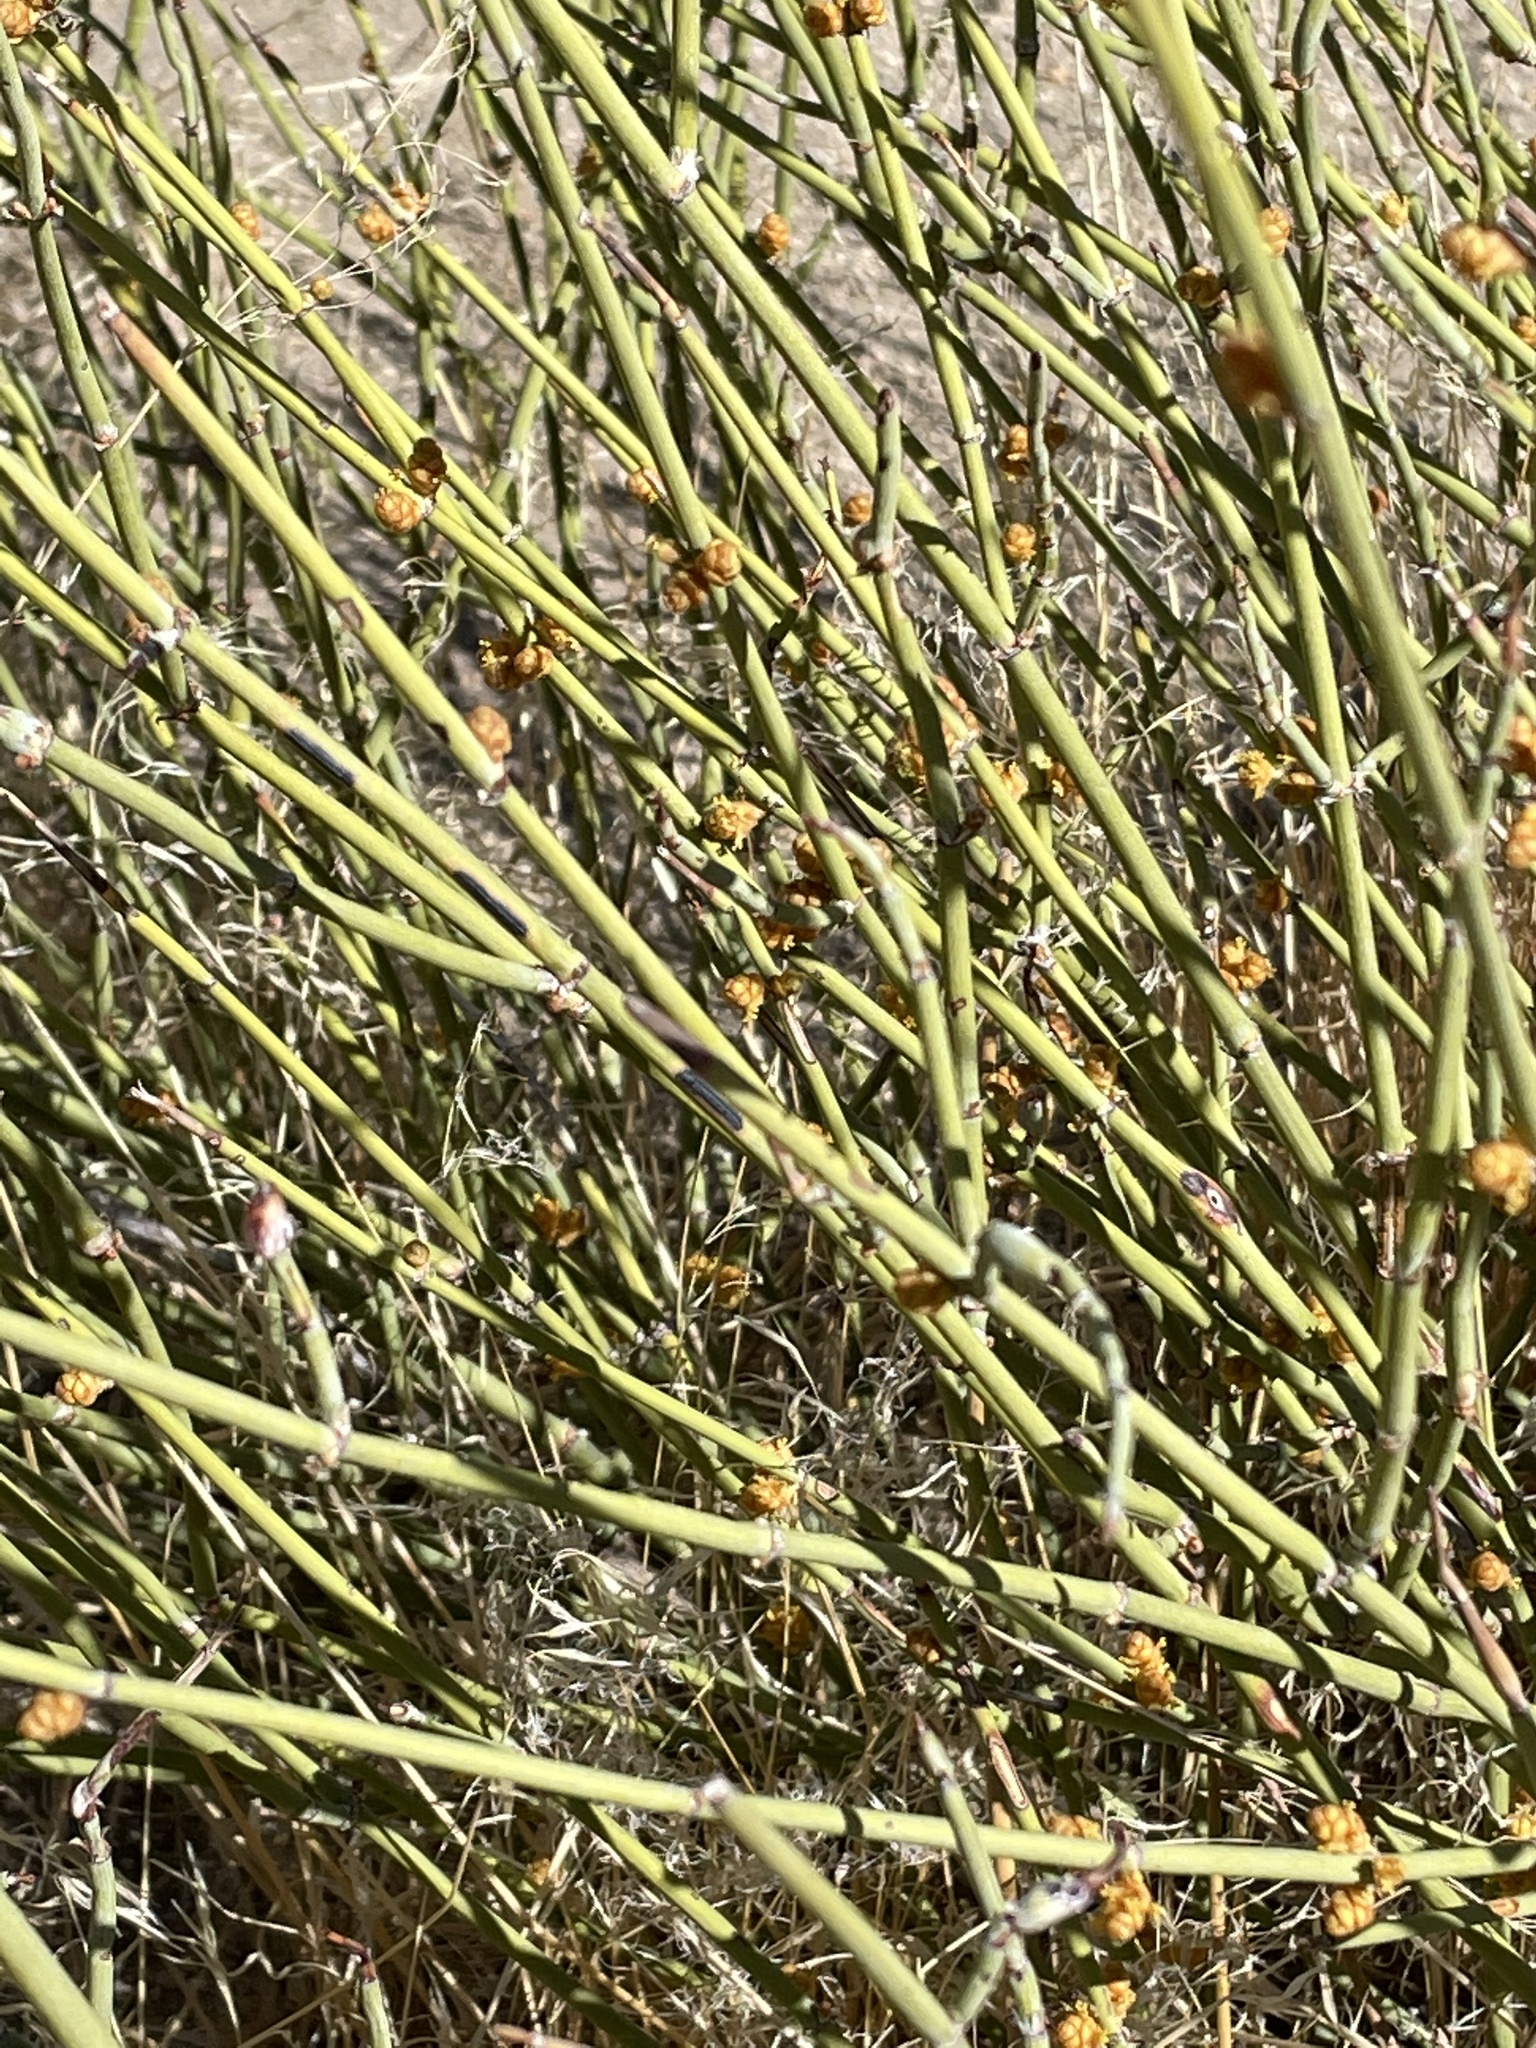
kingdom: Plantae
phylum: Tracheophyta
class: Gnetopsida
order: Ephedrales
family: Ephedraceae
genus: Ephedra
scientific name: Ephedra californica
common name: California ephedra
